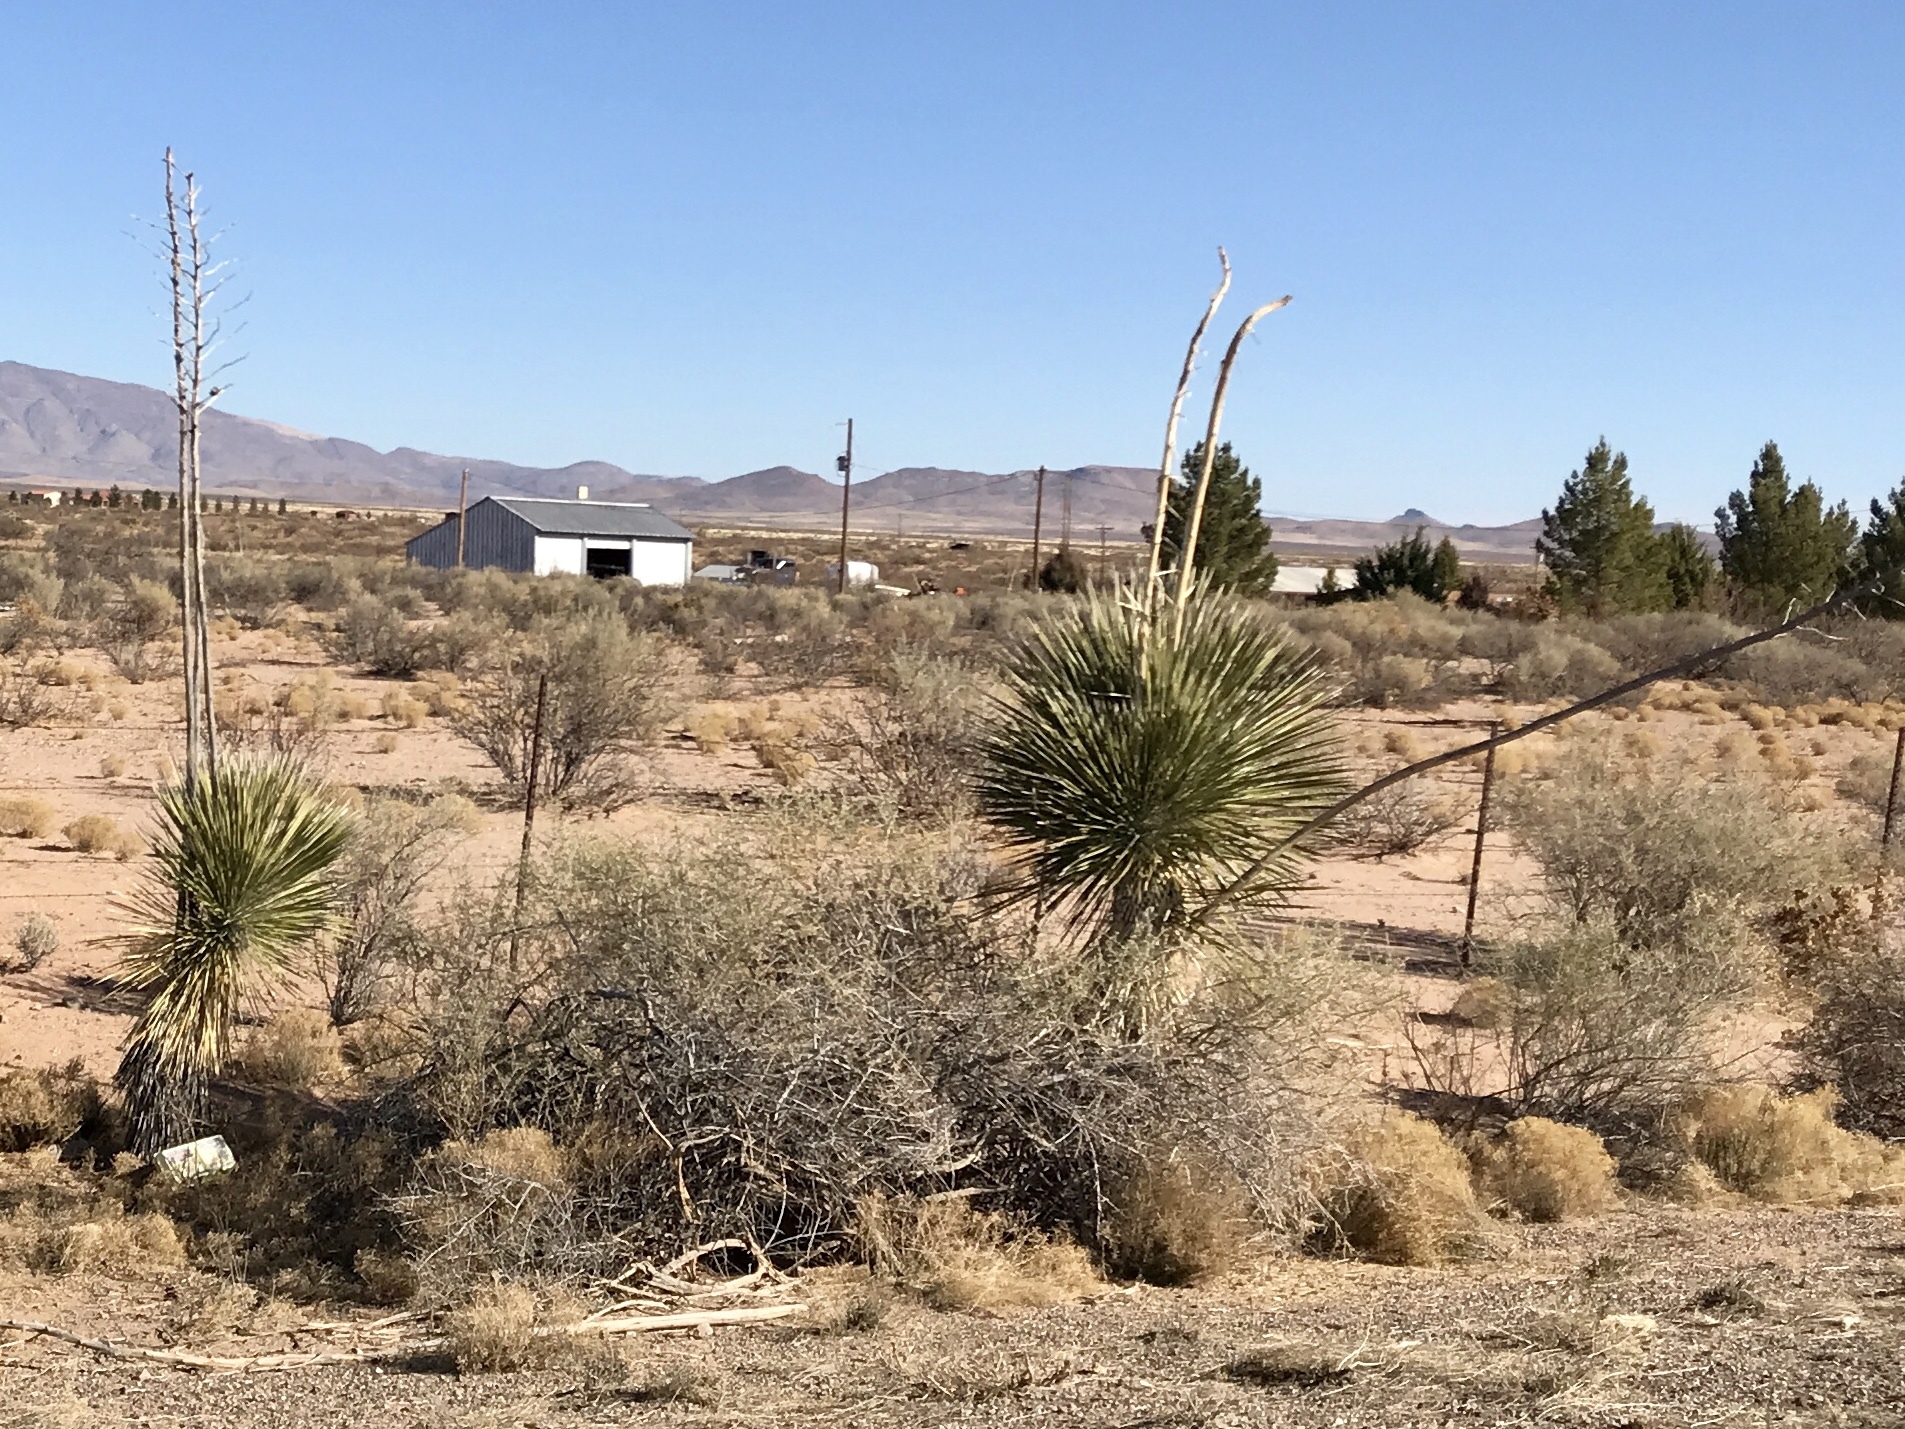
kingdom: Plantae
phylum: Tracheophyta
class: Liliopsida
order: Asparagales
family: Asparagaceae
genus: Yucca
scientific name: Yucca elata
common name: Palmella
